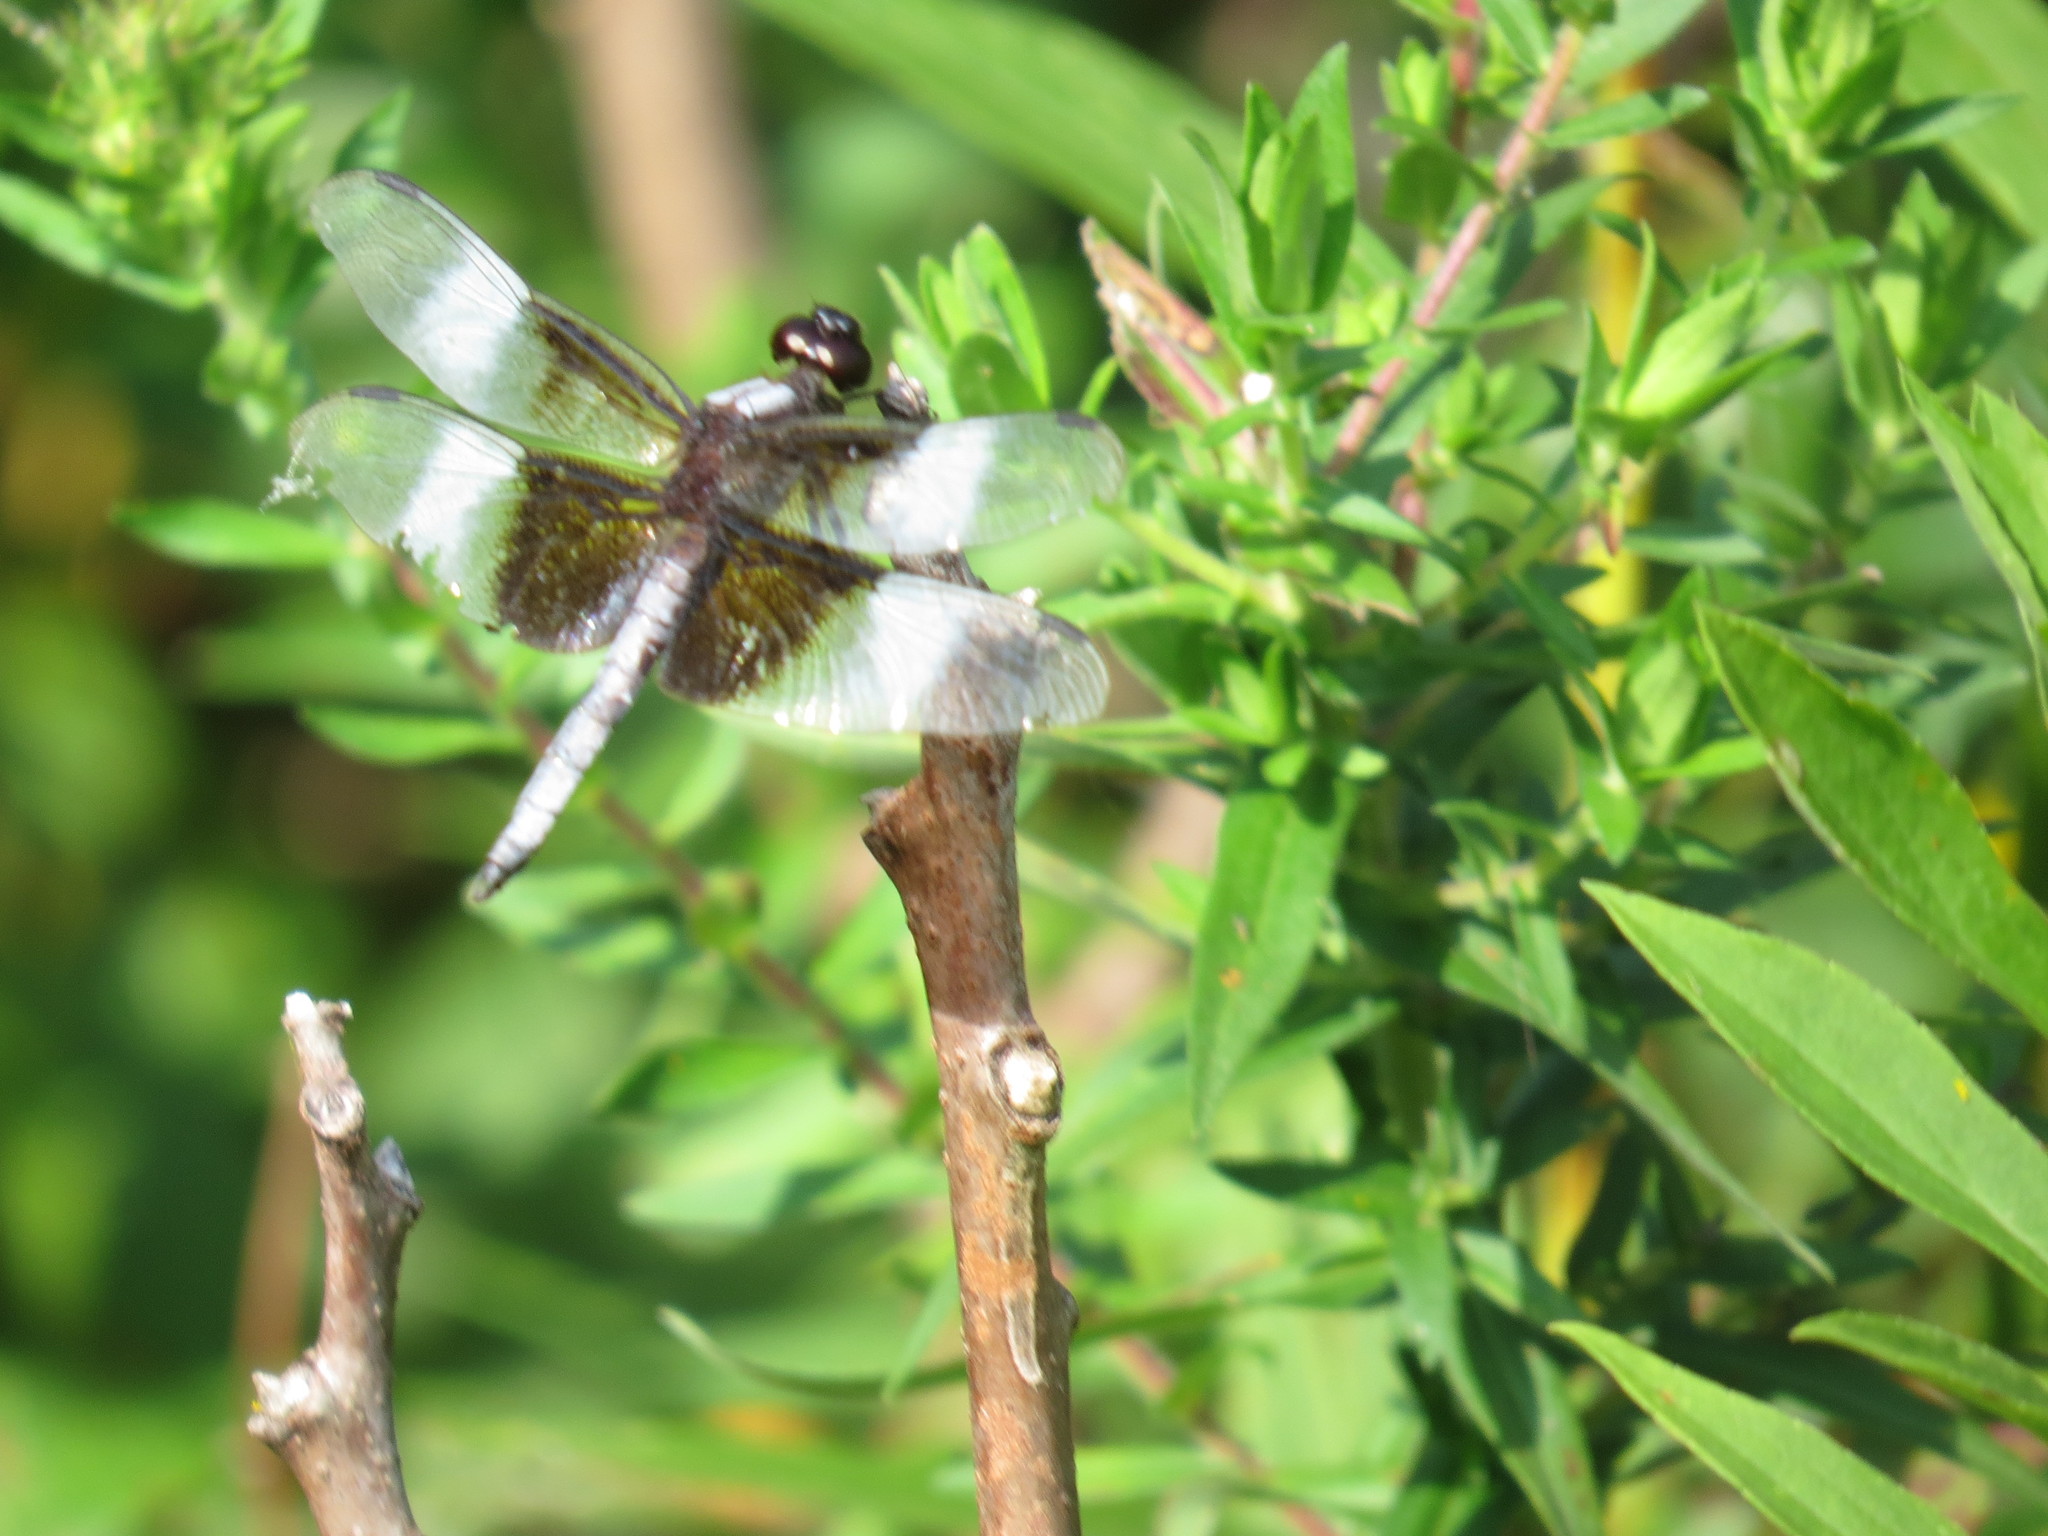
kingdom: Animalia
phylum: Arthropoda
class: Insecta
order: Odonata
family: Libellulidae
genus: Libellula
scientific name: Libellula luctuosa
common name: Widow skimmer
